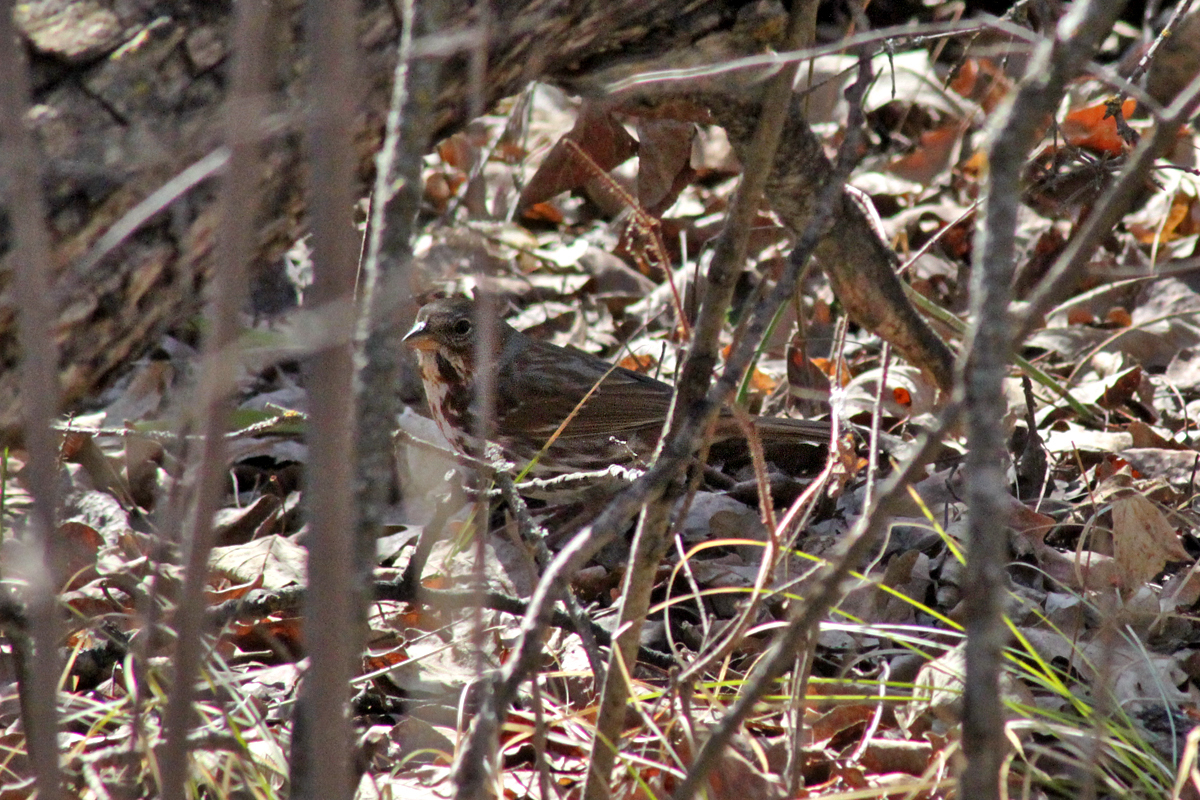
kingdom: Animalia
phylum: Chordata
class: Aves
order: Passeriformes
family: Passerellidae
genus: Passerella
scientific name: Passerella iliaca
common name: Fox sparrow
